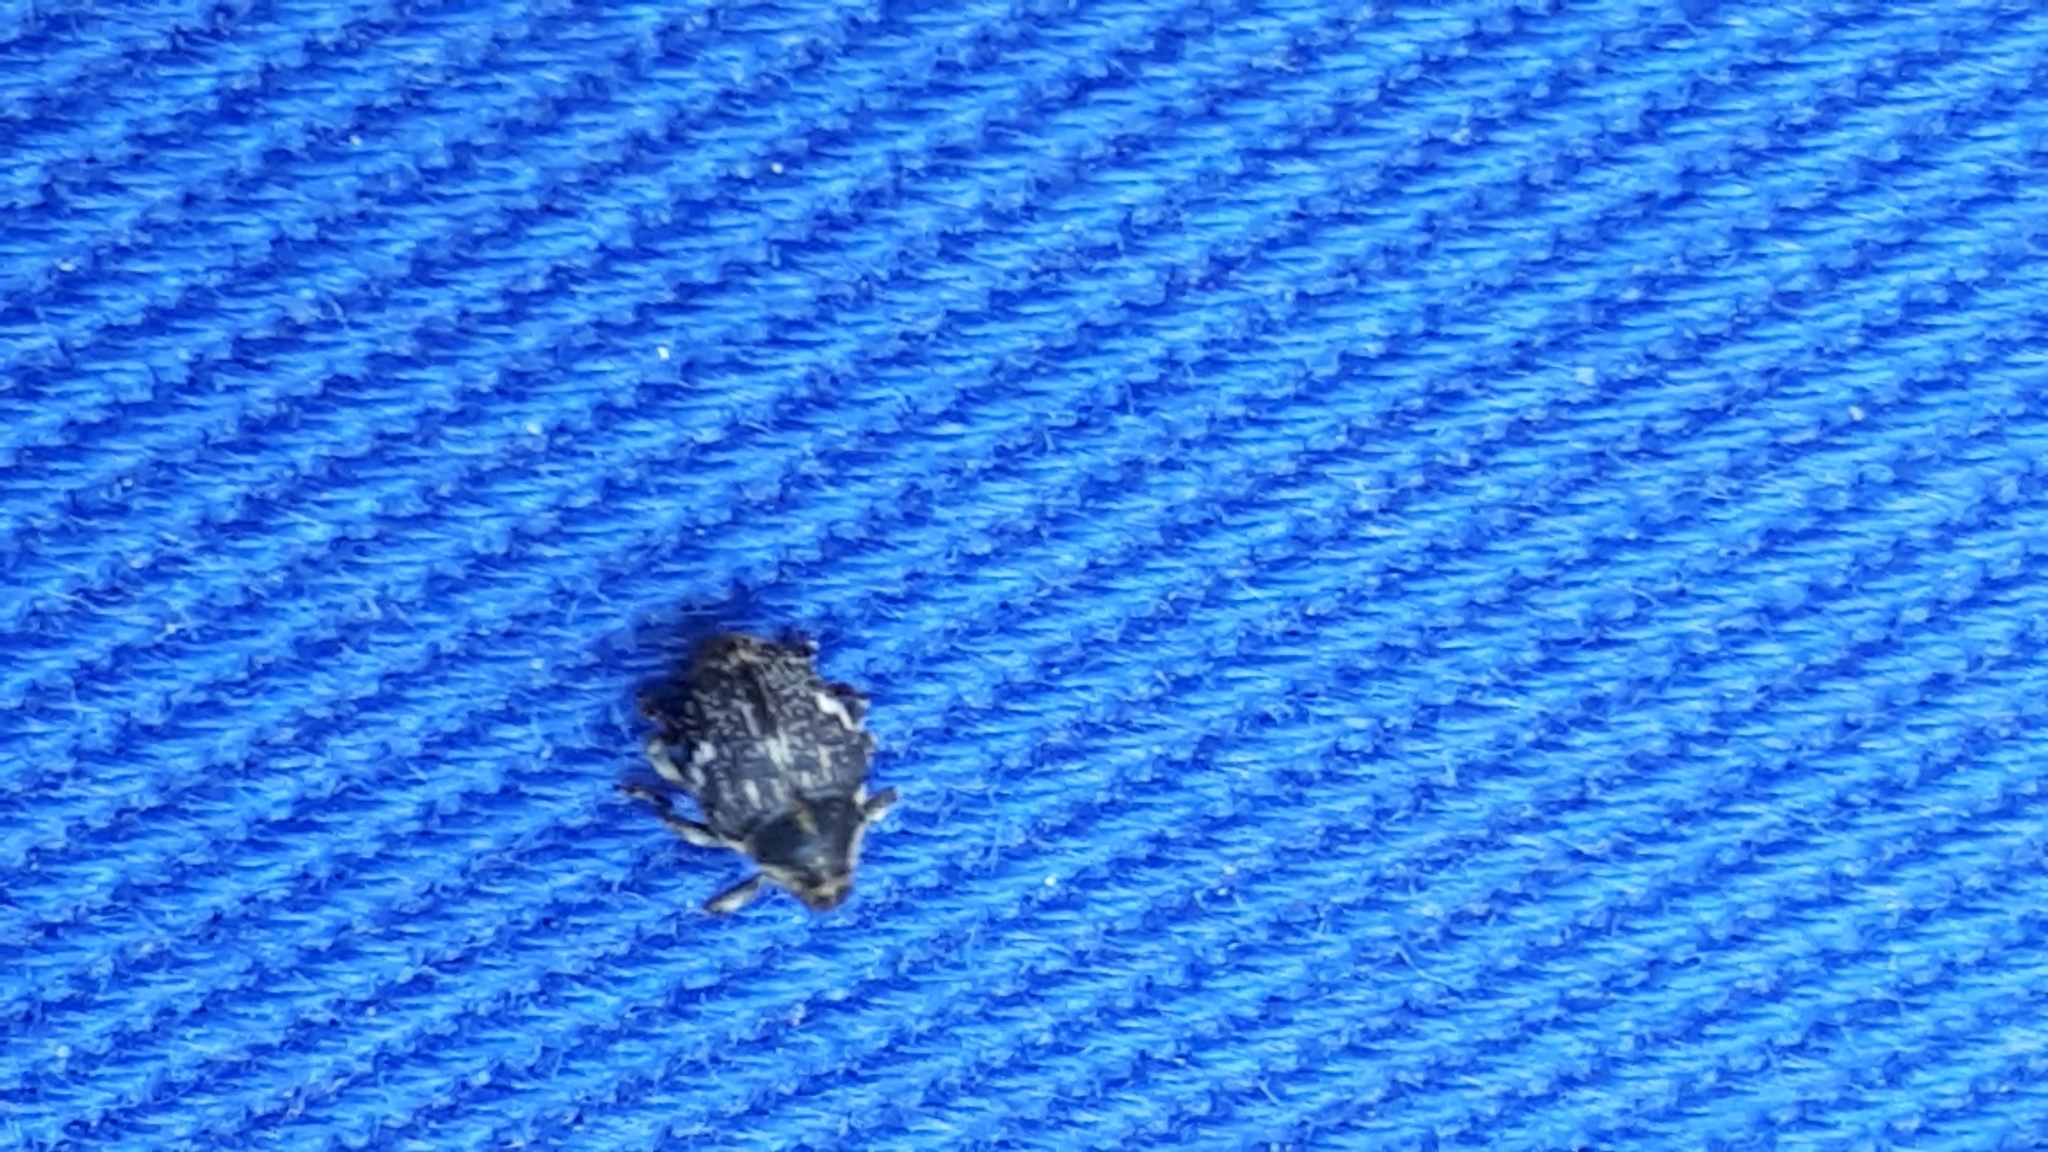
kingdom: Animalia
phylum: Arthropoda
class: Insecta
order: Coleoptera
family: Curculionidae
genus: Nedyus
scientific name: Nedyus quadrimaculatus
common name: Small nettle weevil
